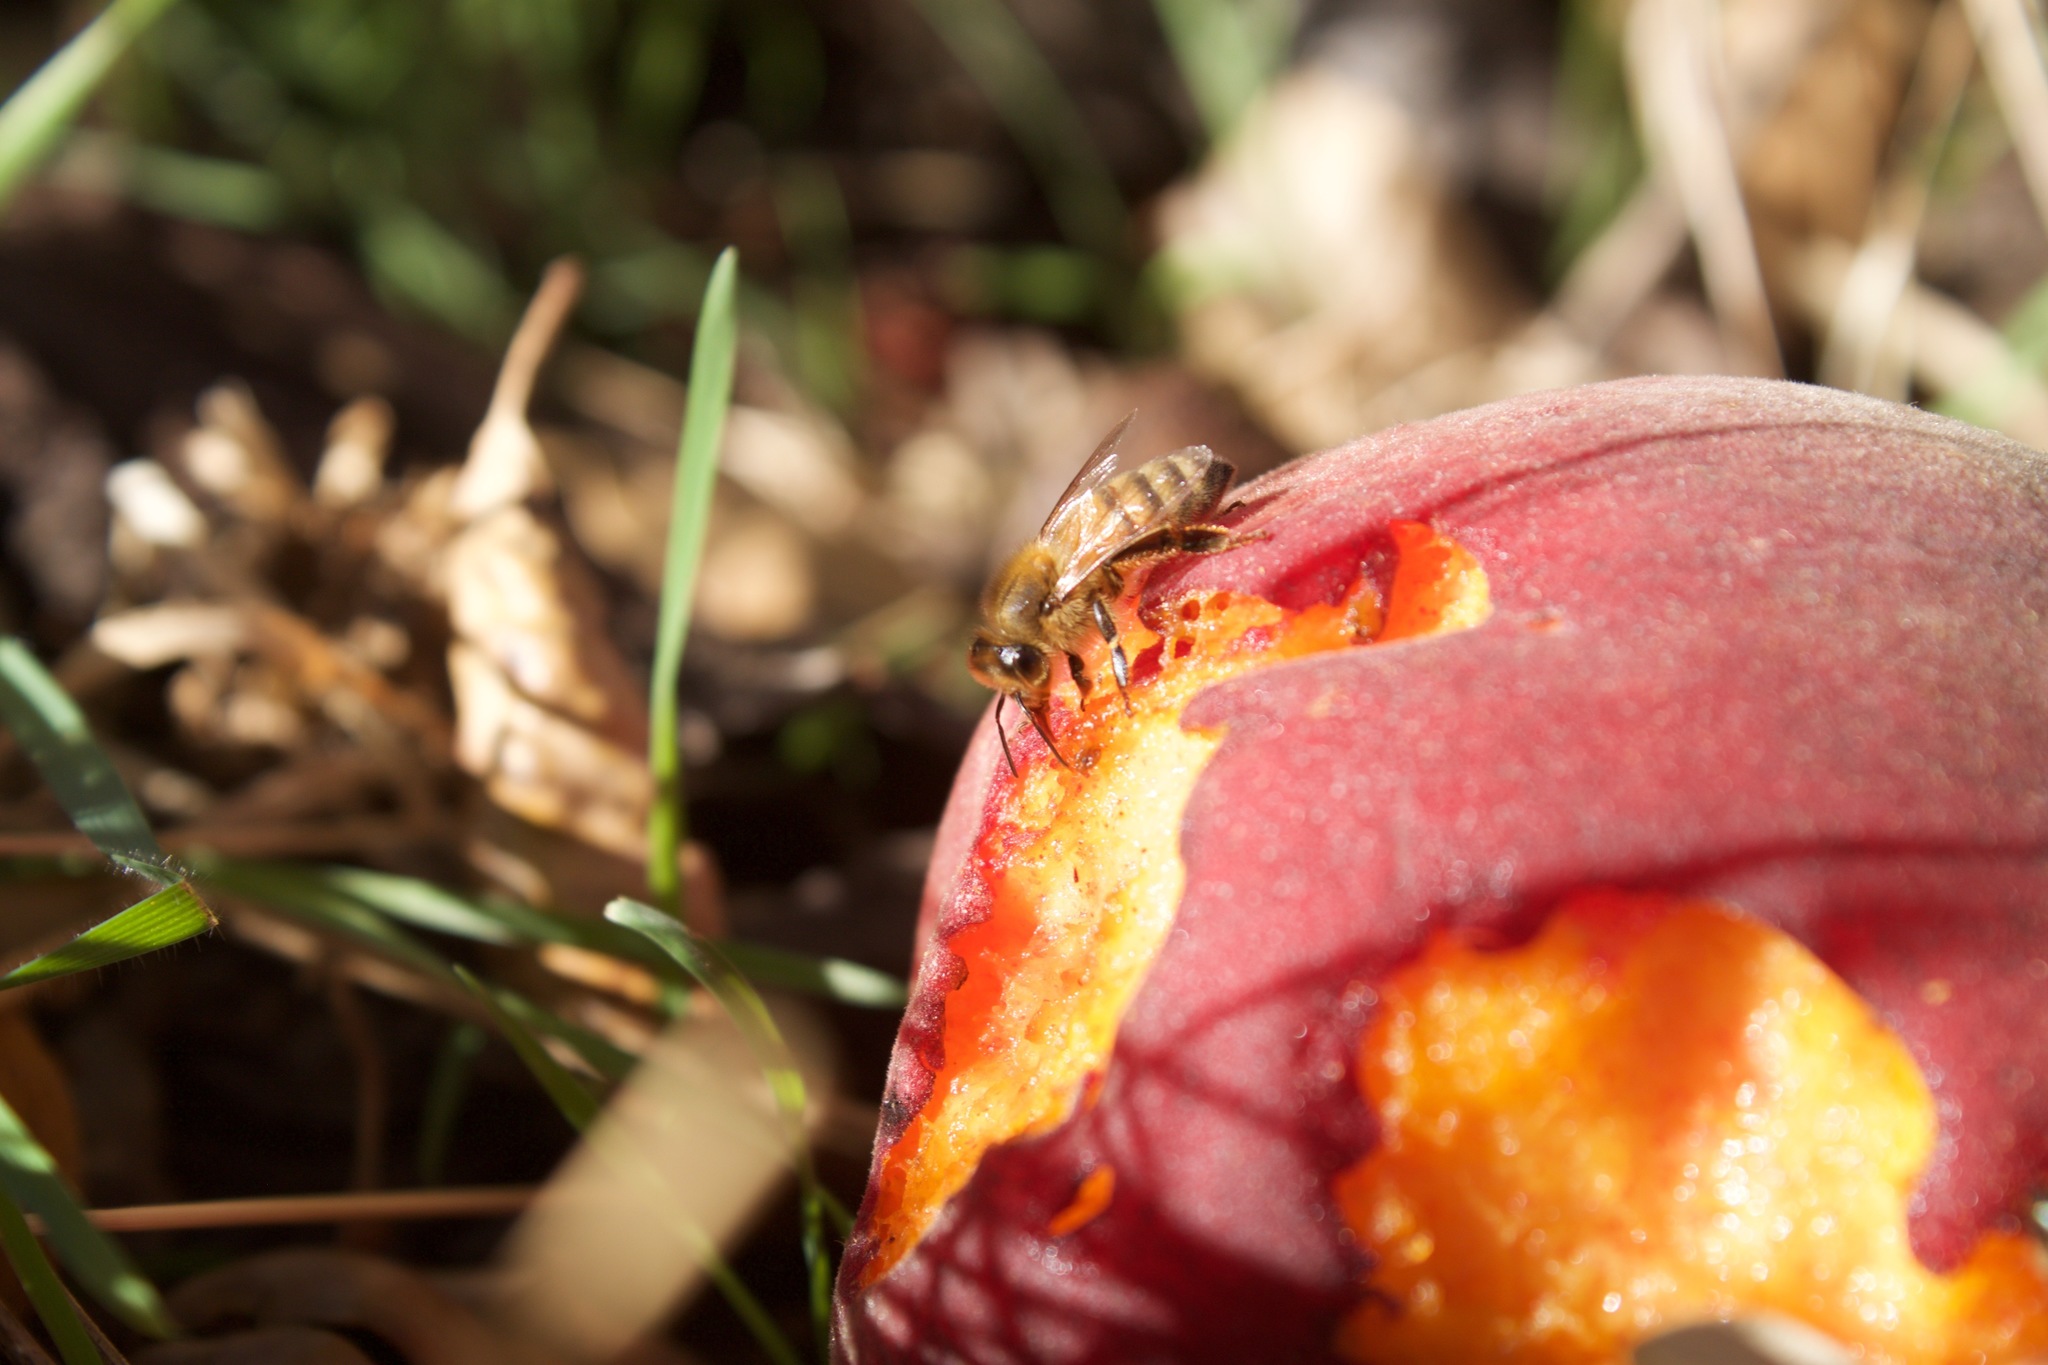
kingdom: Animalia
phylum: Arthropoda
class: Insecta
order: Hymenoptera
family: Apidae
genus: Apis
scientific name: Apis mellifera
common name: Honey bee
